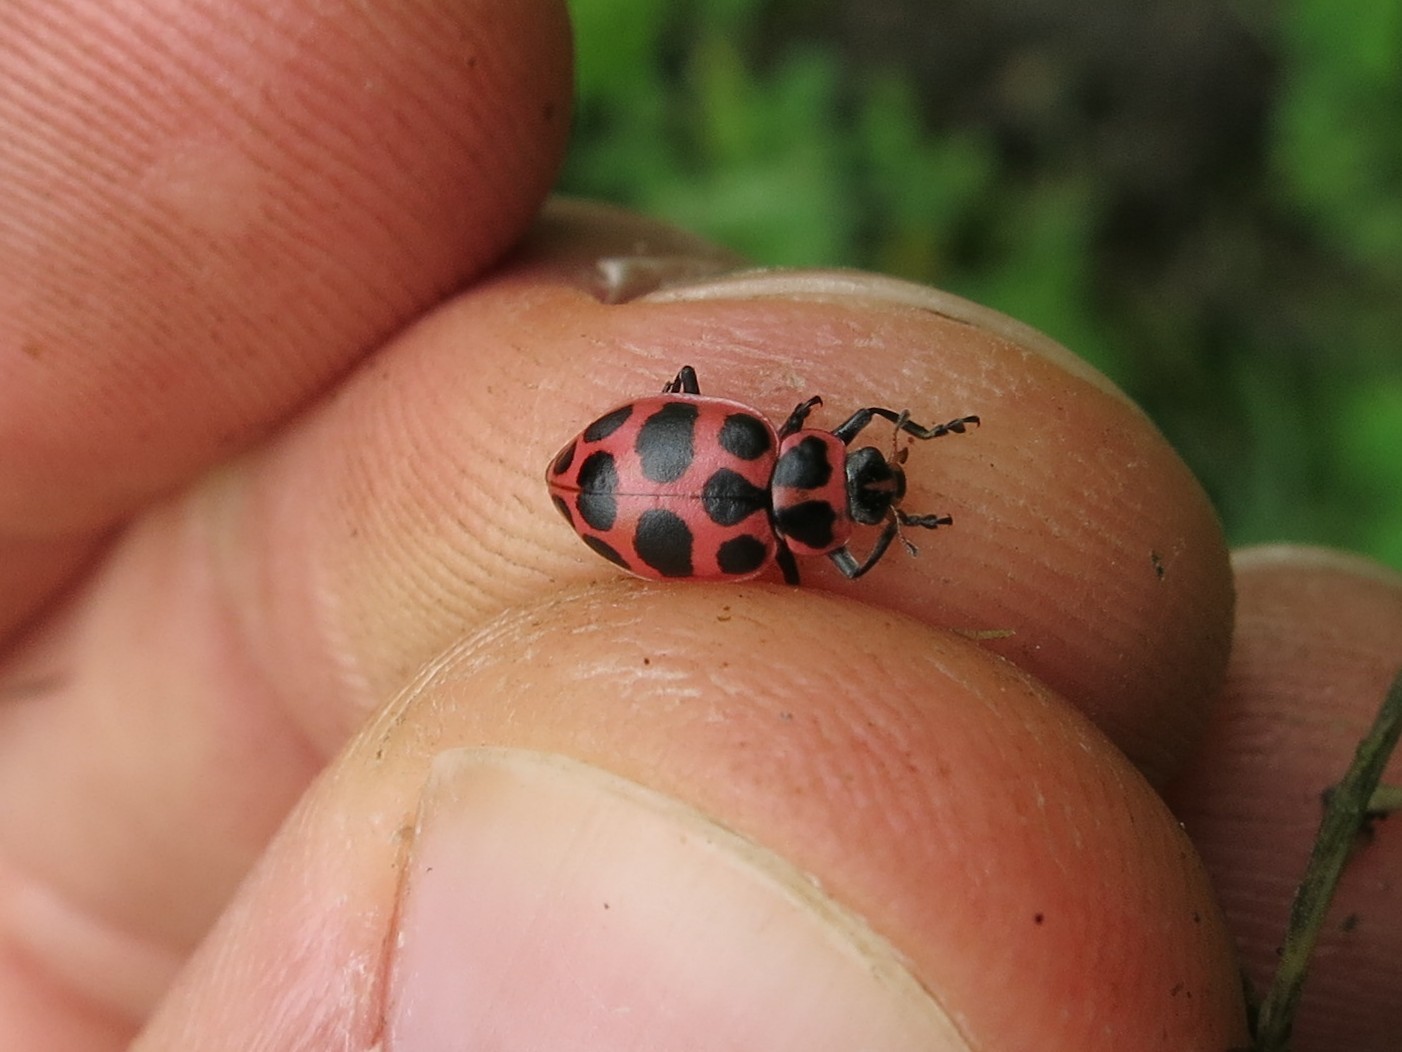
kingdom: Animalia
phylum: Arthropoda
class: Insecta
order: Coleoptera
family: Coccinellidae
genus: Coleomegilla
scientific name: Coleomegilla maculata
